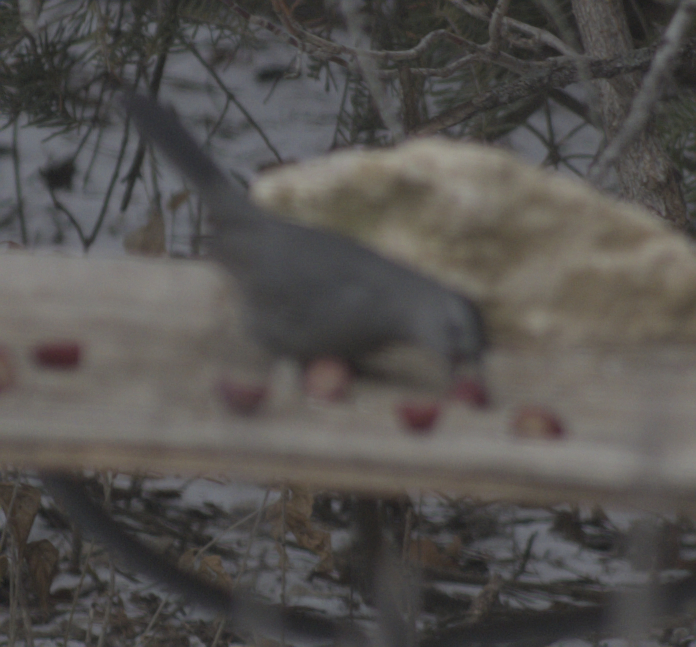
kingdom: Animalia
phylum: Chordata
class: Aves
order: Passeriformes
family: Mimidae
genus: Dumetella
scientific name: Dumetella carolinensis
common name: Gray catbird
